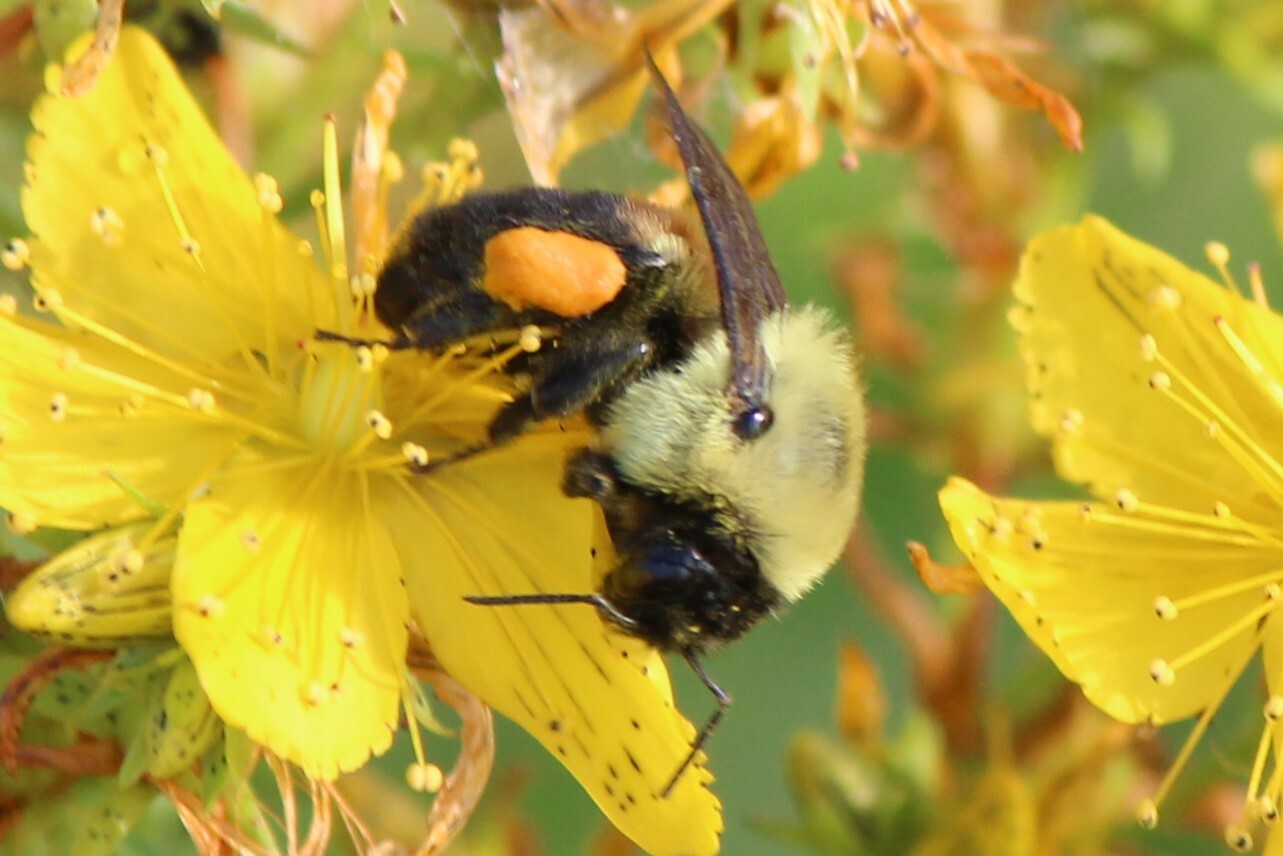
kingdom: Animalia
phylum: Arthropoda
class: Insecta
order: Hymenoptera
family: Apidae
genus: Bombus
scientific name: Bombus griseocollis
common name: Brown-belted bumble bee
